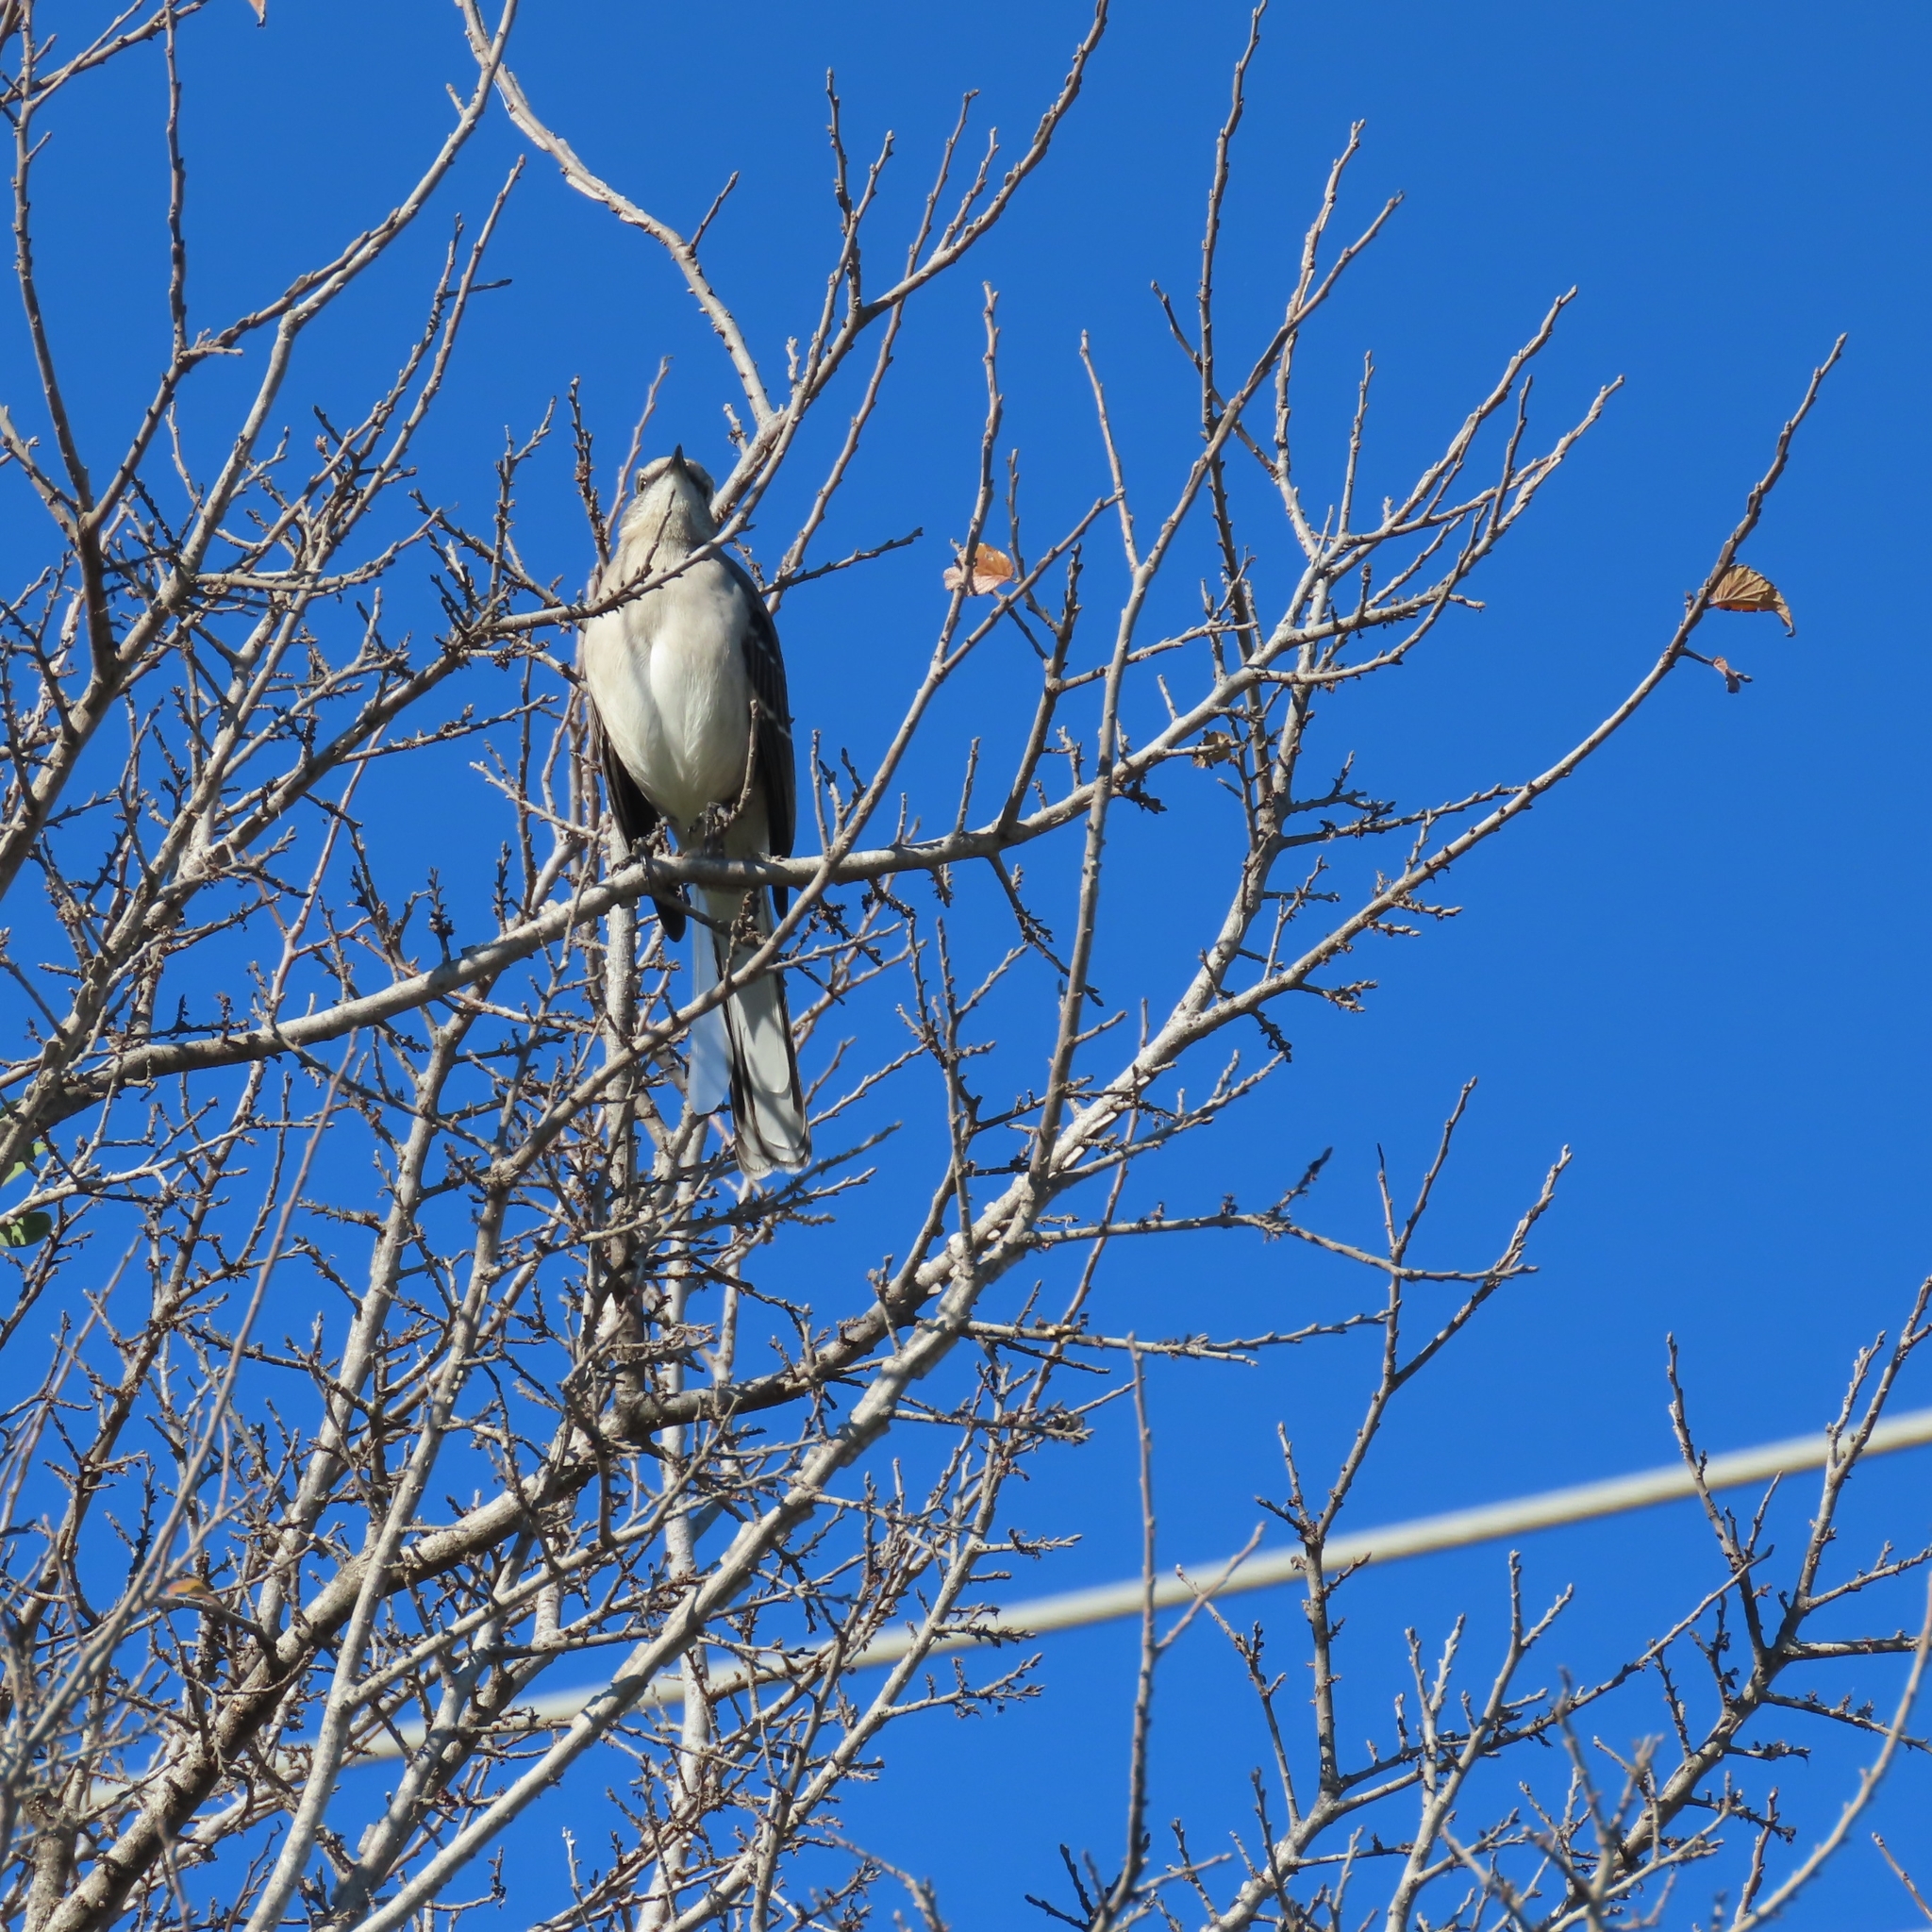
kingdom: Animalia
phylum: Chordata
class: Aves
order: Passeriformes
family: Mimidae
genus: Mimus
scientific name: Mimus polyglottos
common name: Northern mockingbird
